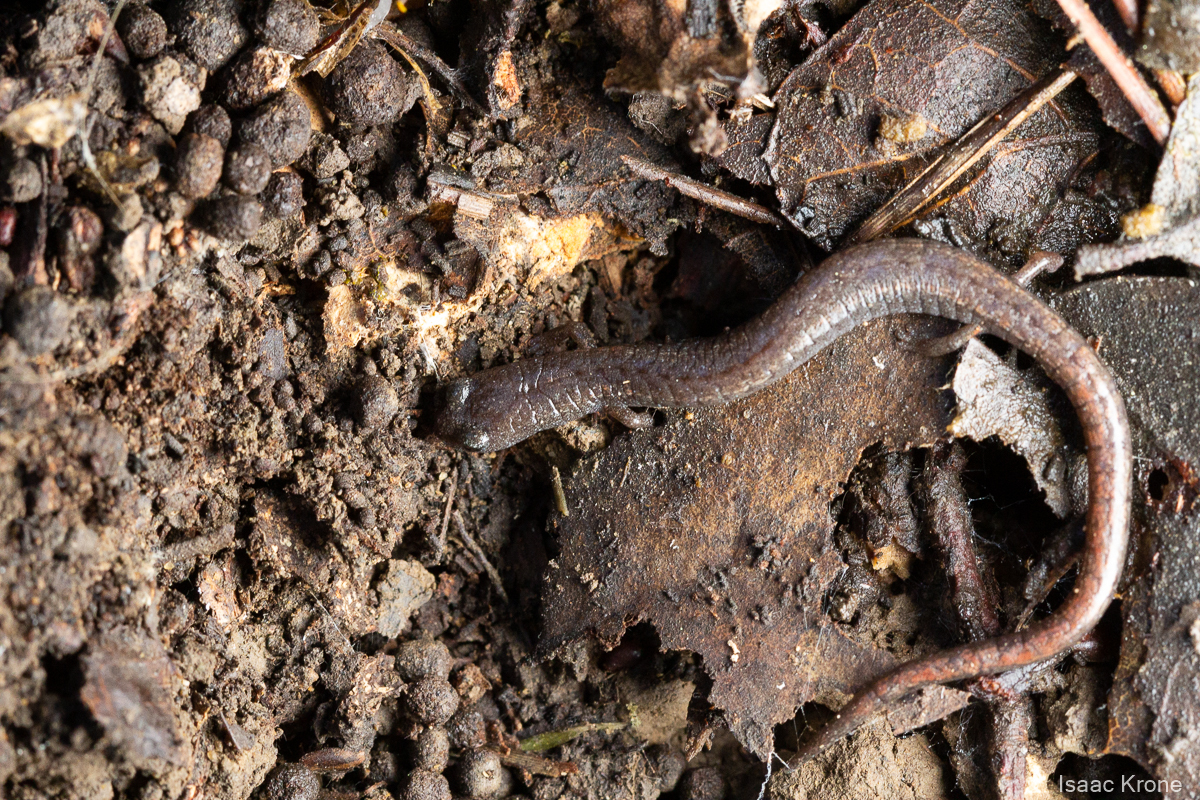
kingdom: Animalia
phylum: Chordata
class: Amphibia
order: Caudata
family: Plethodontidae
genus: Batrachoseps
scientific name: Batrachoseps attenuatus
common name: California slender salamander
